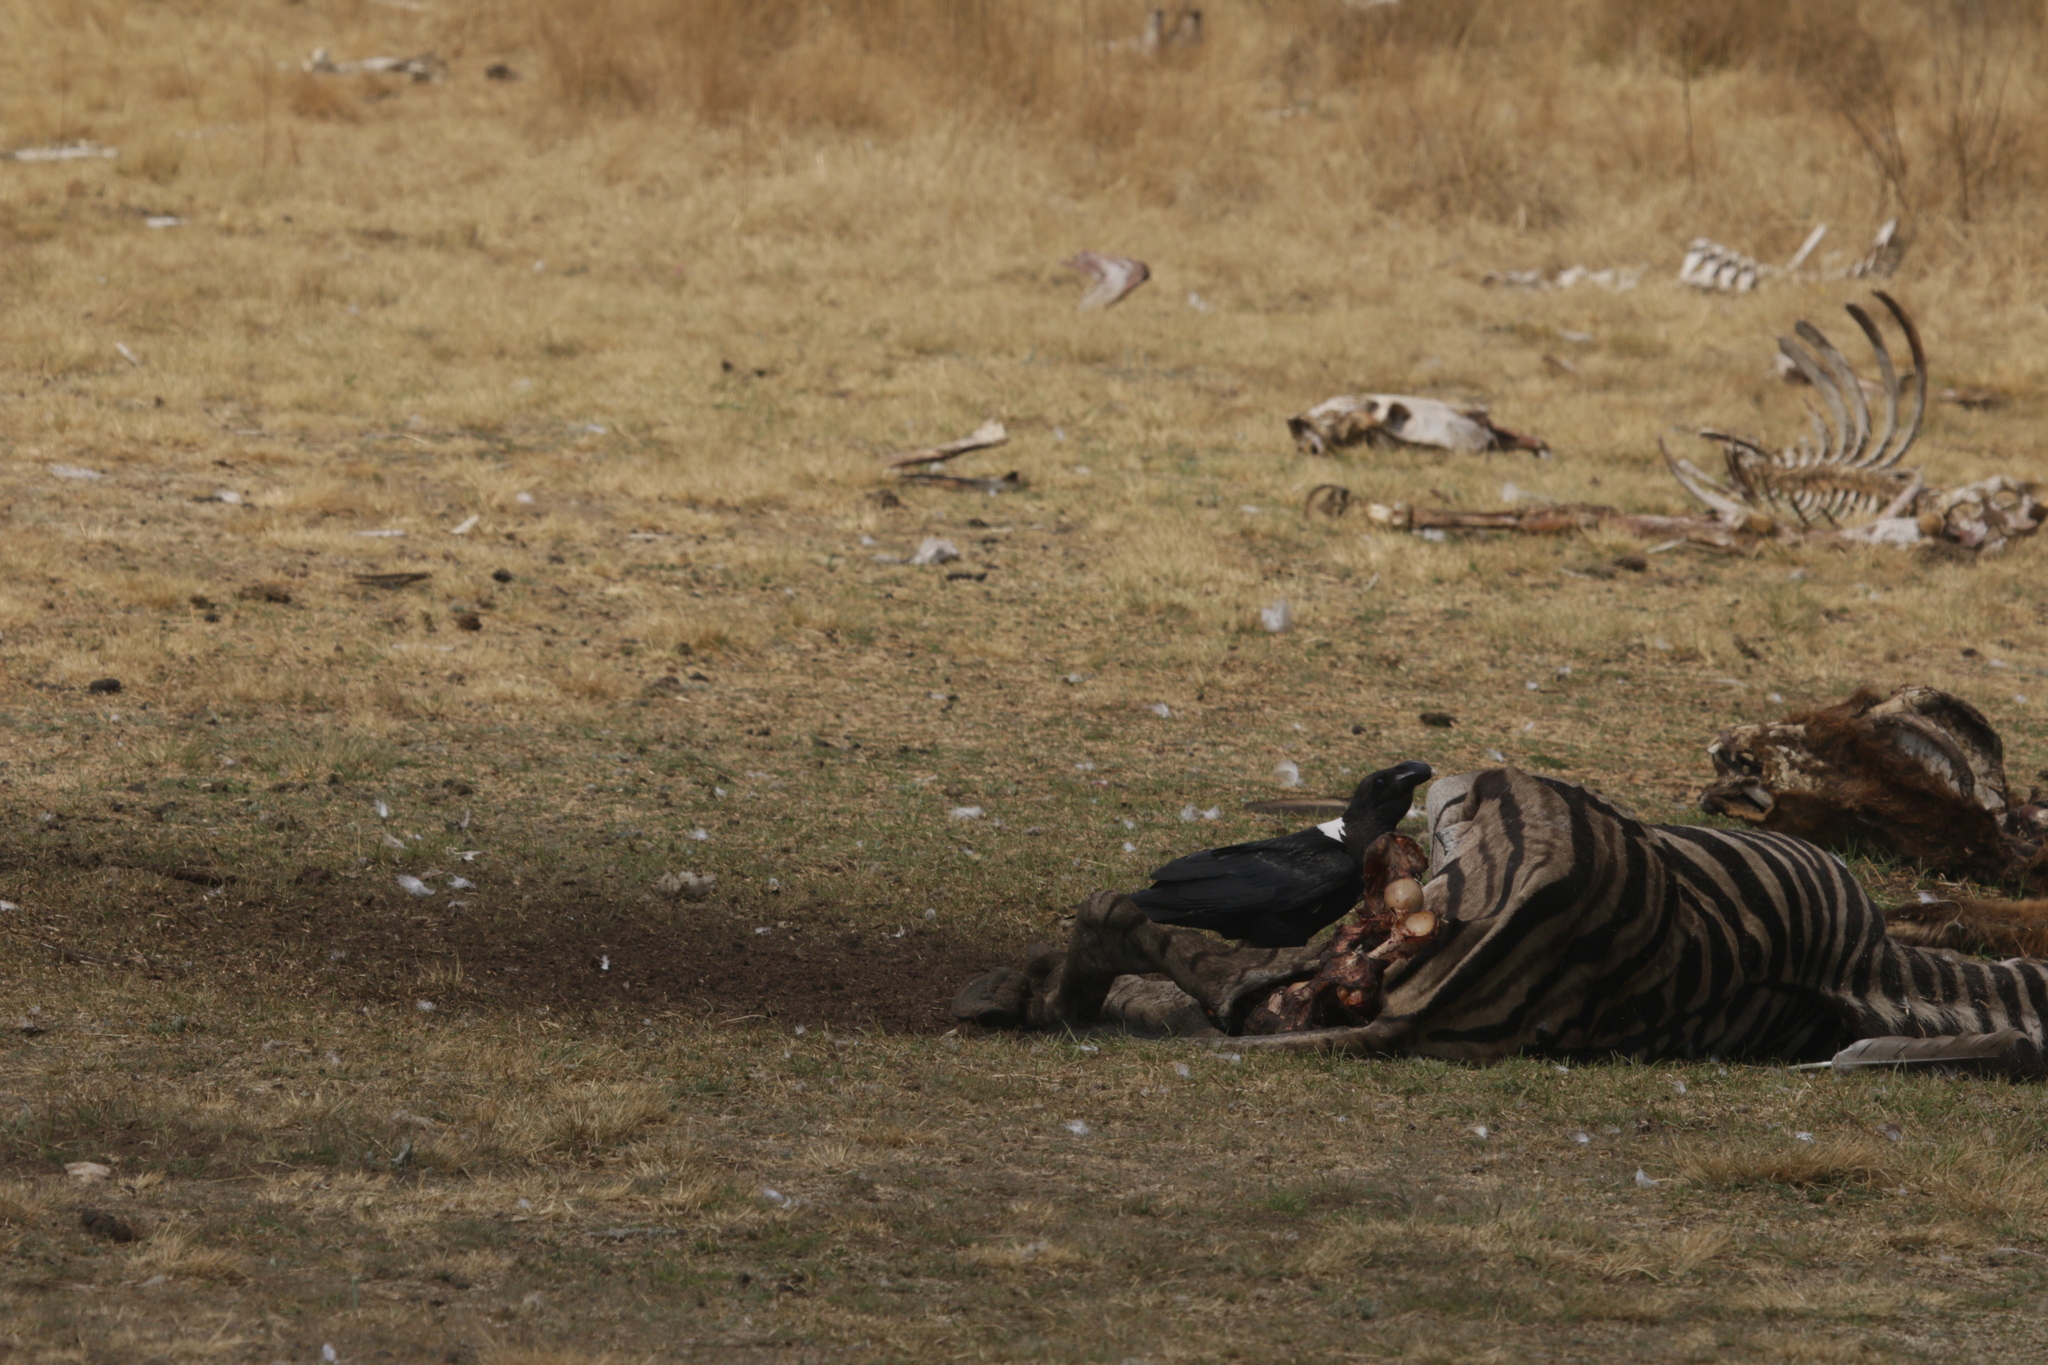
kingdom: Animalia
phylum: Chordata
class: Aves
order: Passeriformes
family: Corvidae
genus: Corvus
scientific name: Corvus albicollis
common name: White-necked raven
